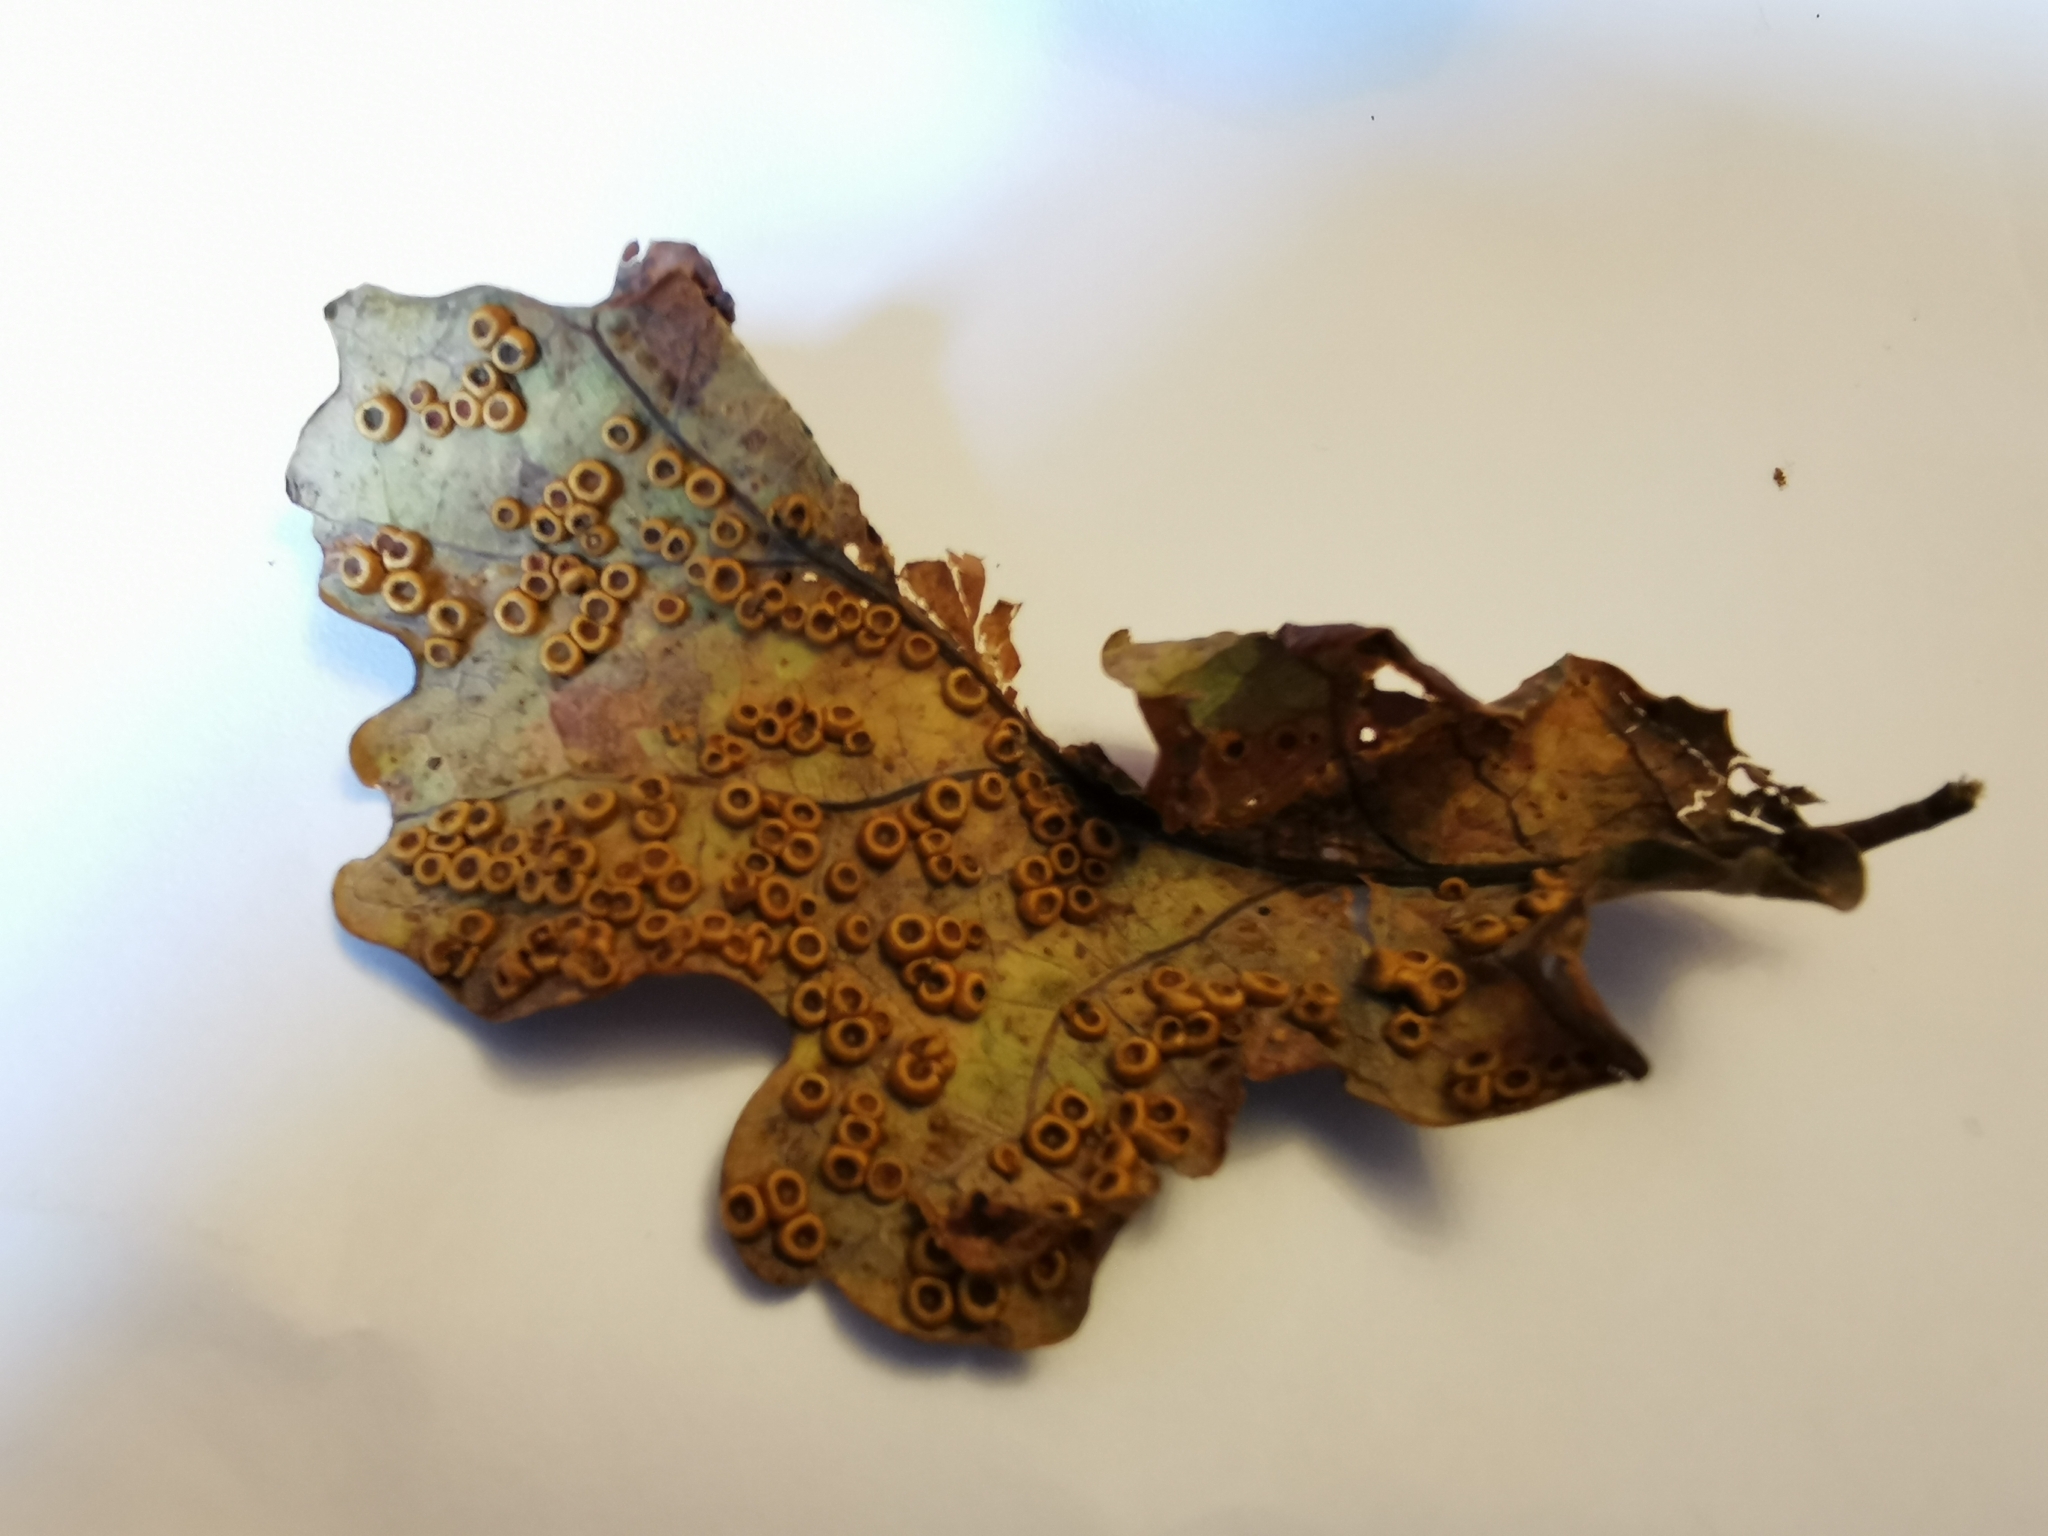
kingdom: Animalia
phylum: Arthropoda
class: Insecta
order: Hymenoptera
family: Cynipidae
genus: Neuroterus
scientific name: Neuroterus numismalis
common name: Silk-button spangle gall
